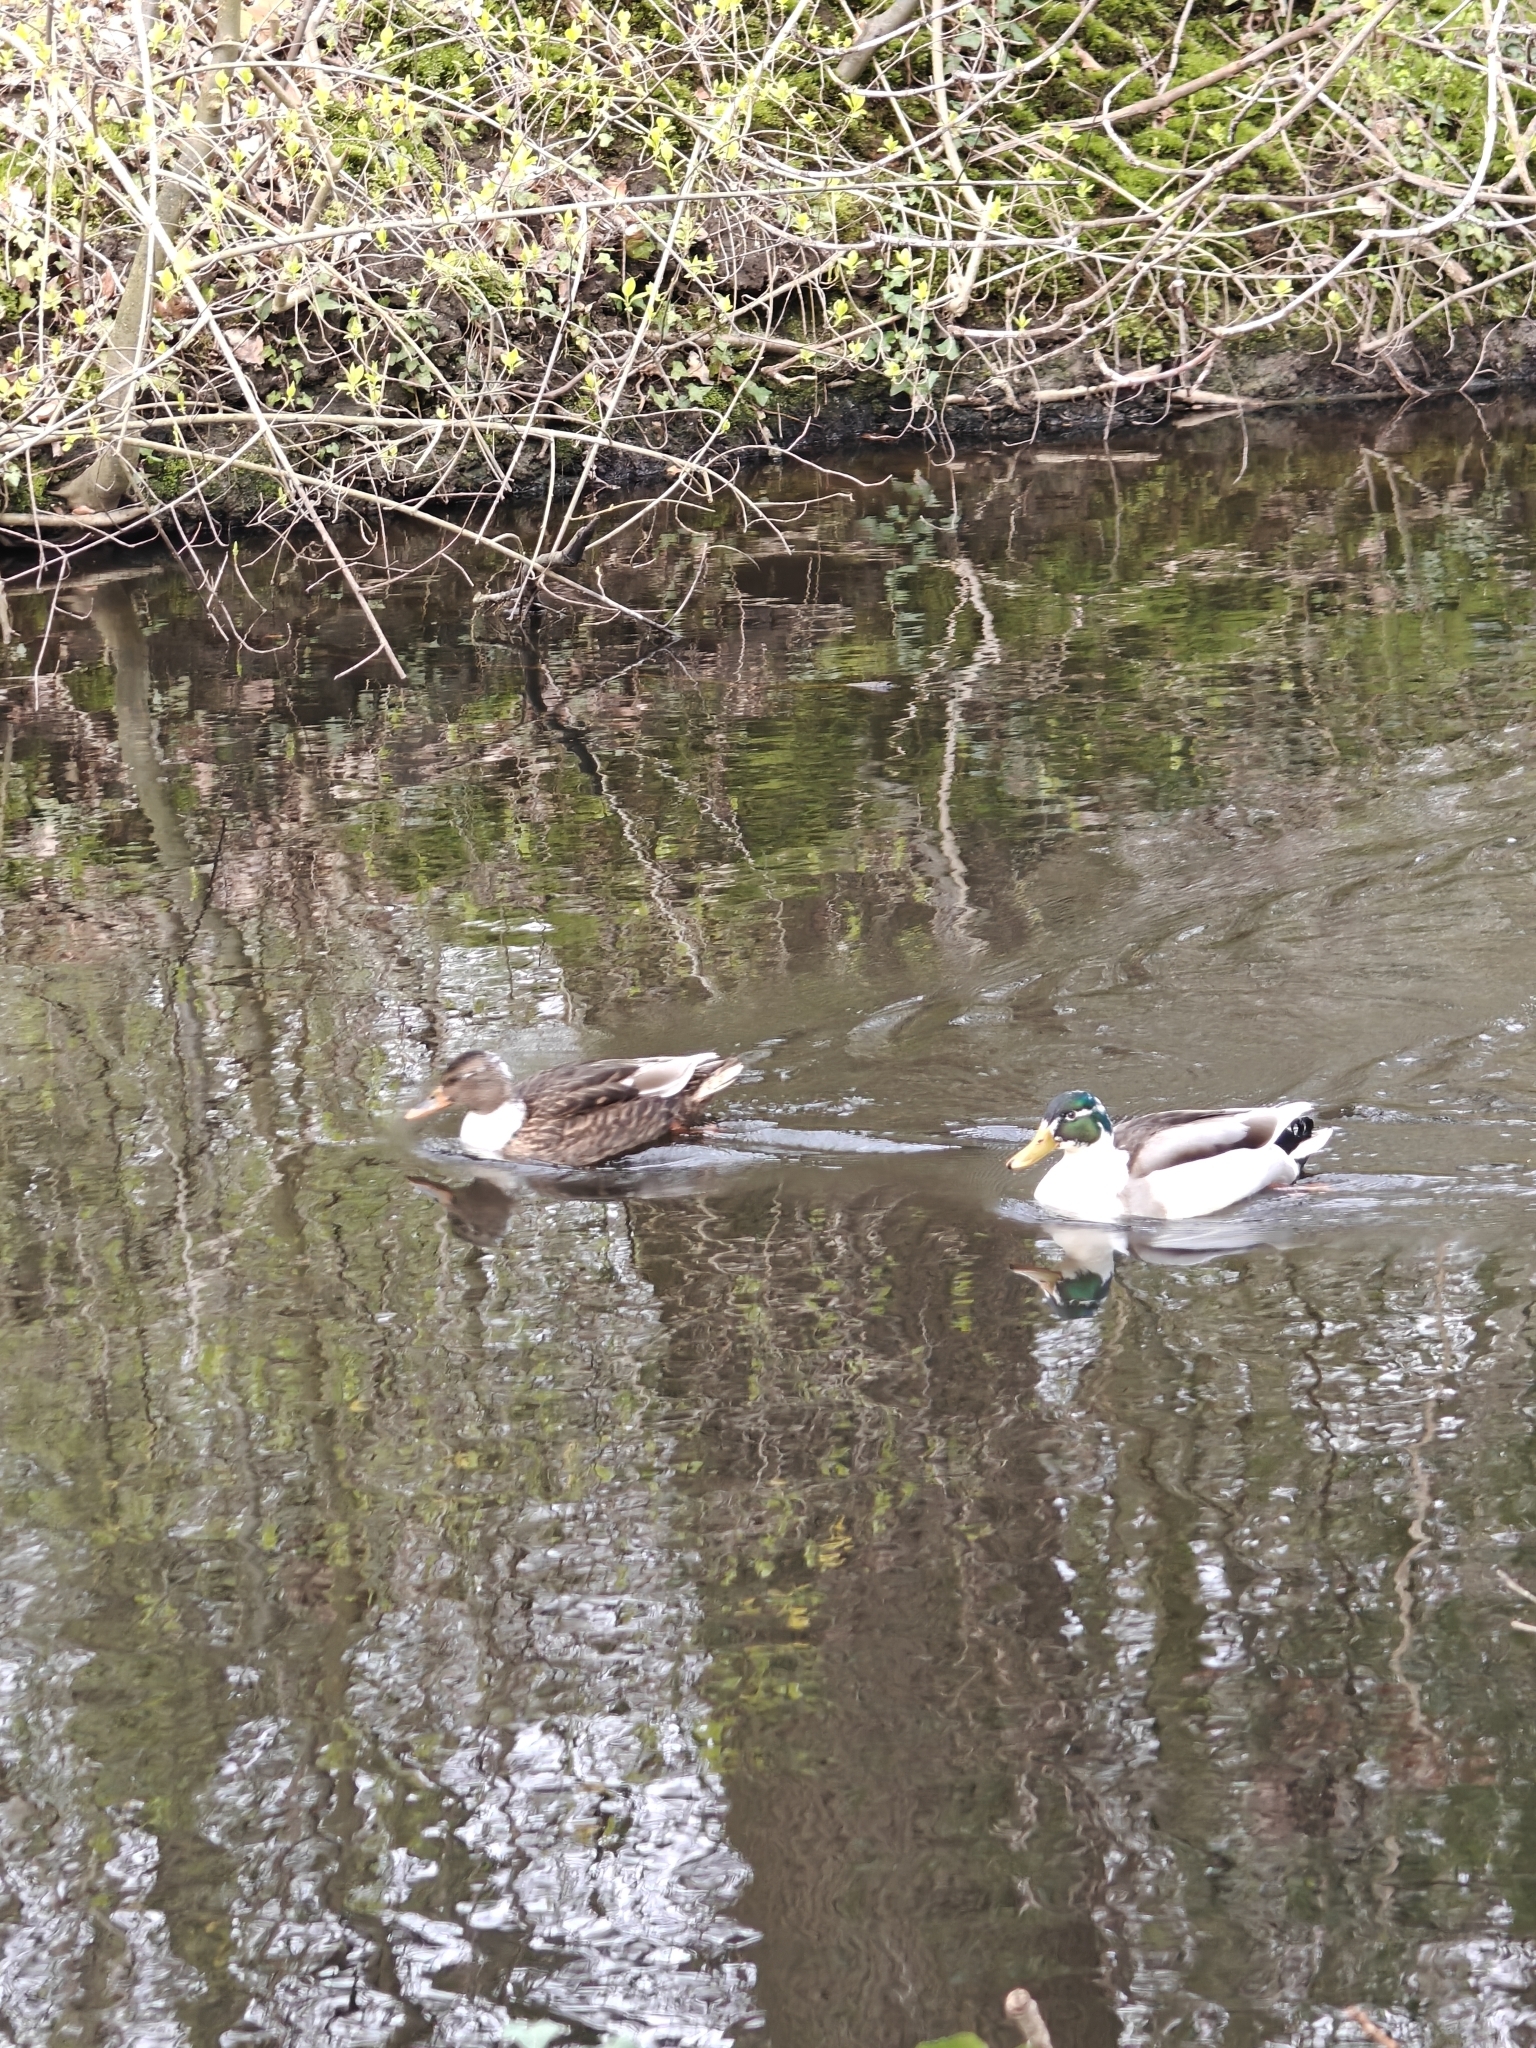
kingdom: Animalia
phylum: Chordata
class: Aves
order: Anseriformes
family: Anatidae
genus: Anas
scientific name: Anas platyrhynchos
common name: Mallard
